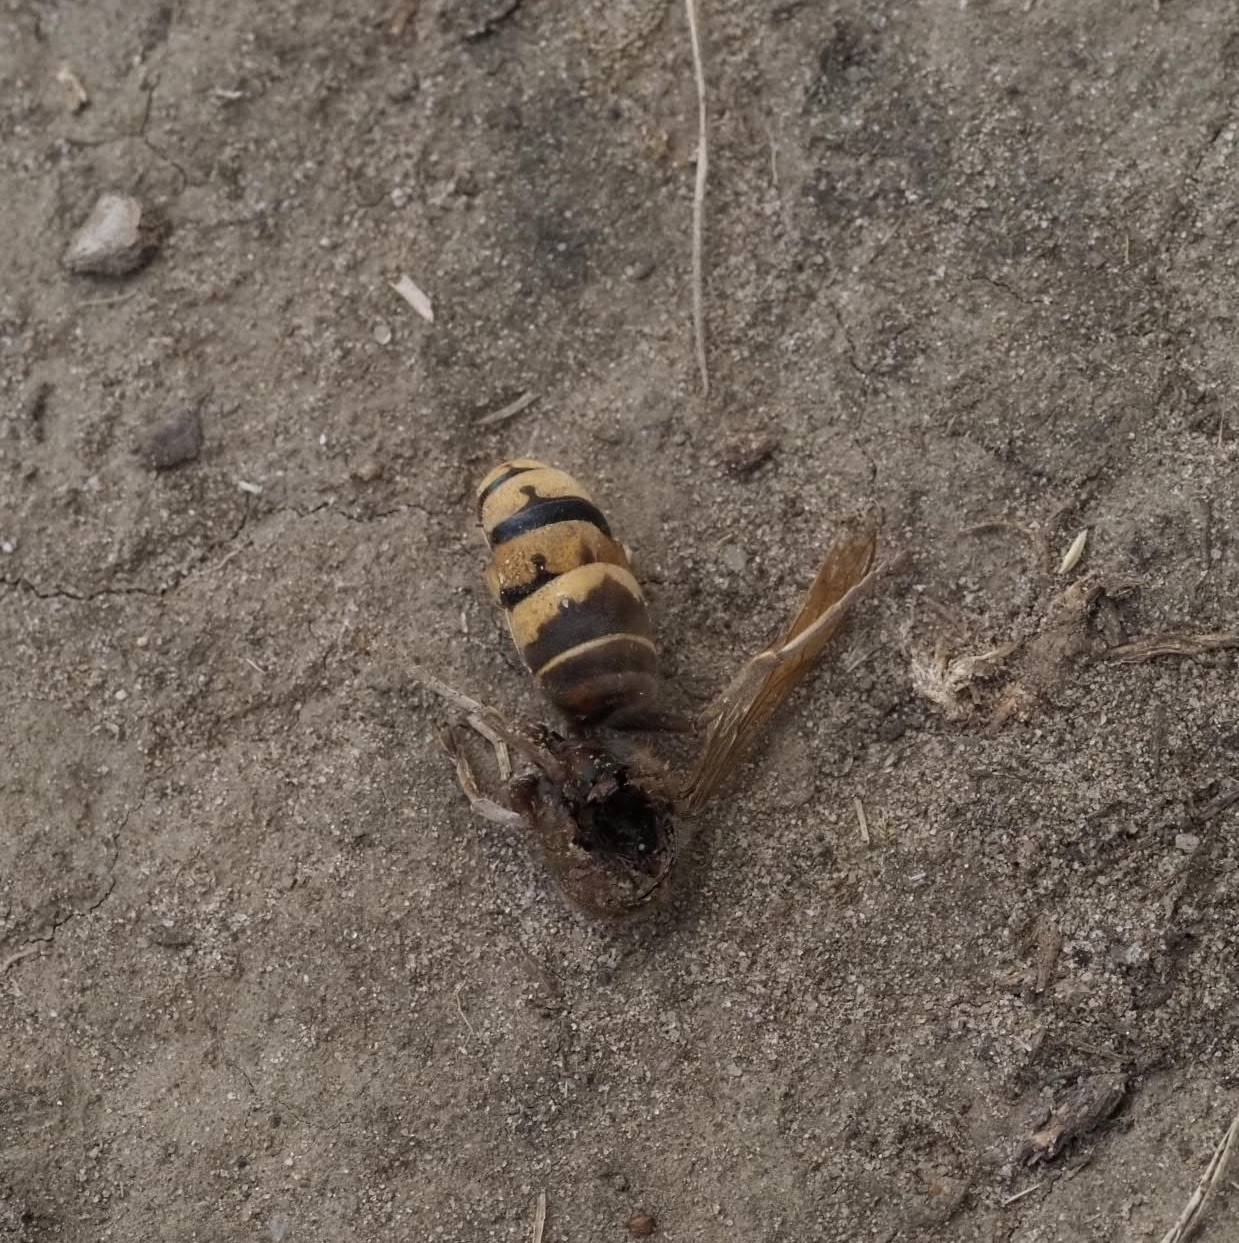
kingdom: Animalia
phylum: Arthropoda
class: Insecta
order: Hymenoptera
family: Vespidae
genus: Vespa
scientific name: Vespa crabro
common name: Hornet
